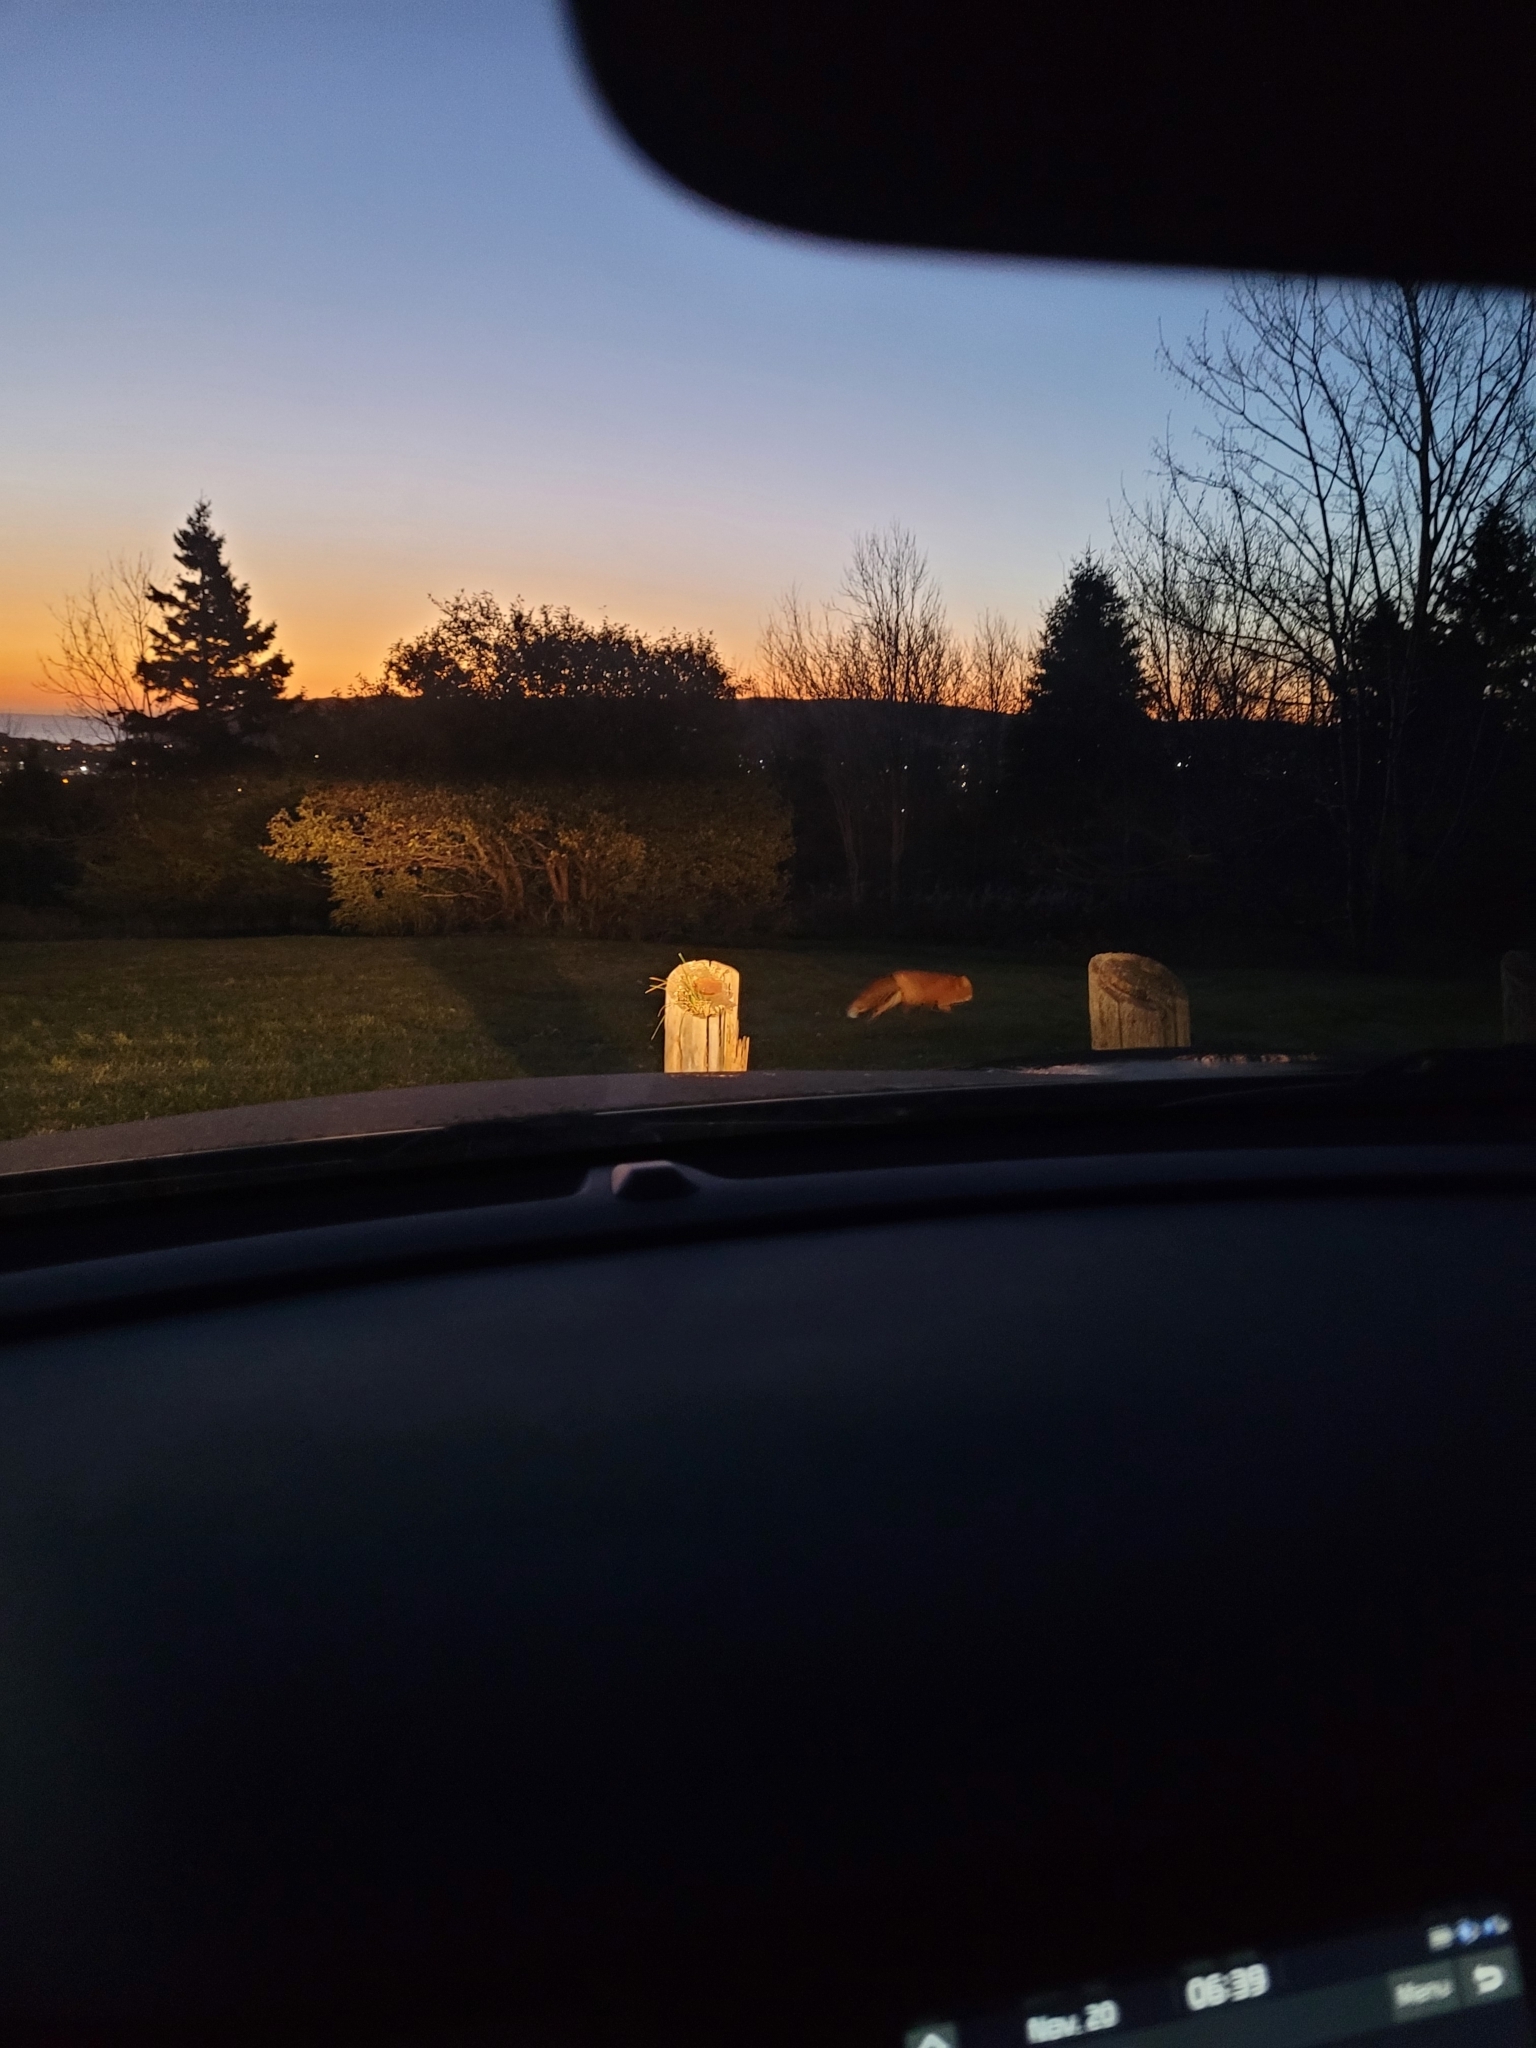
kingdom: Animalia
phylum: Chordata
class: Mammalia
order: Carnivora
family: Canidae
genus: Vulpes
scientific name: Vulpes vulpes
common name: Red fox
